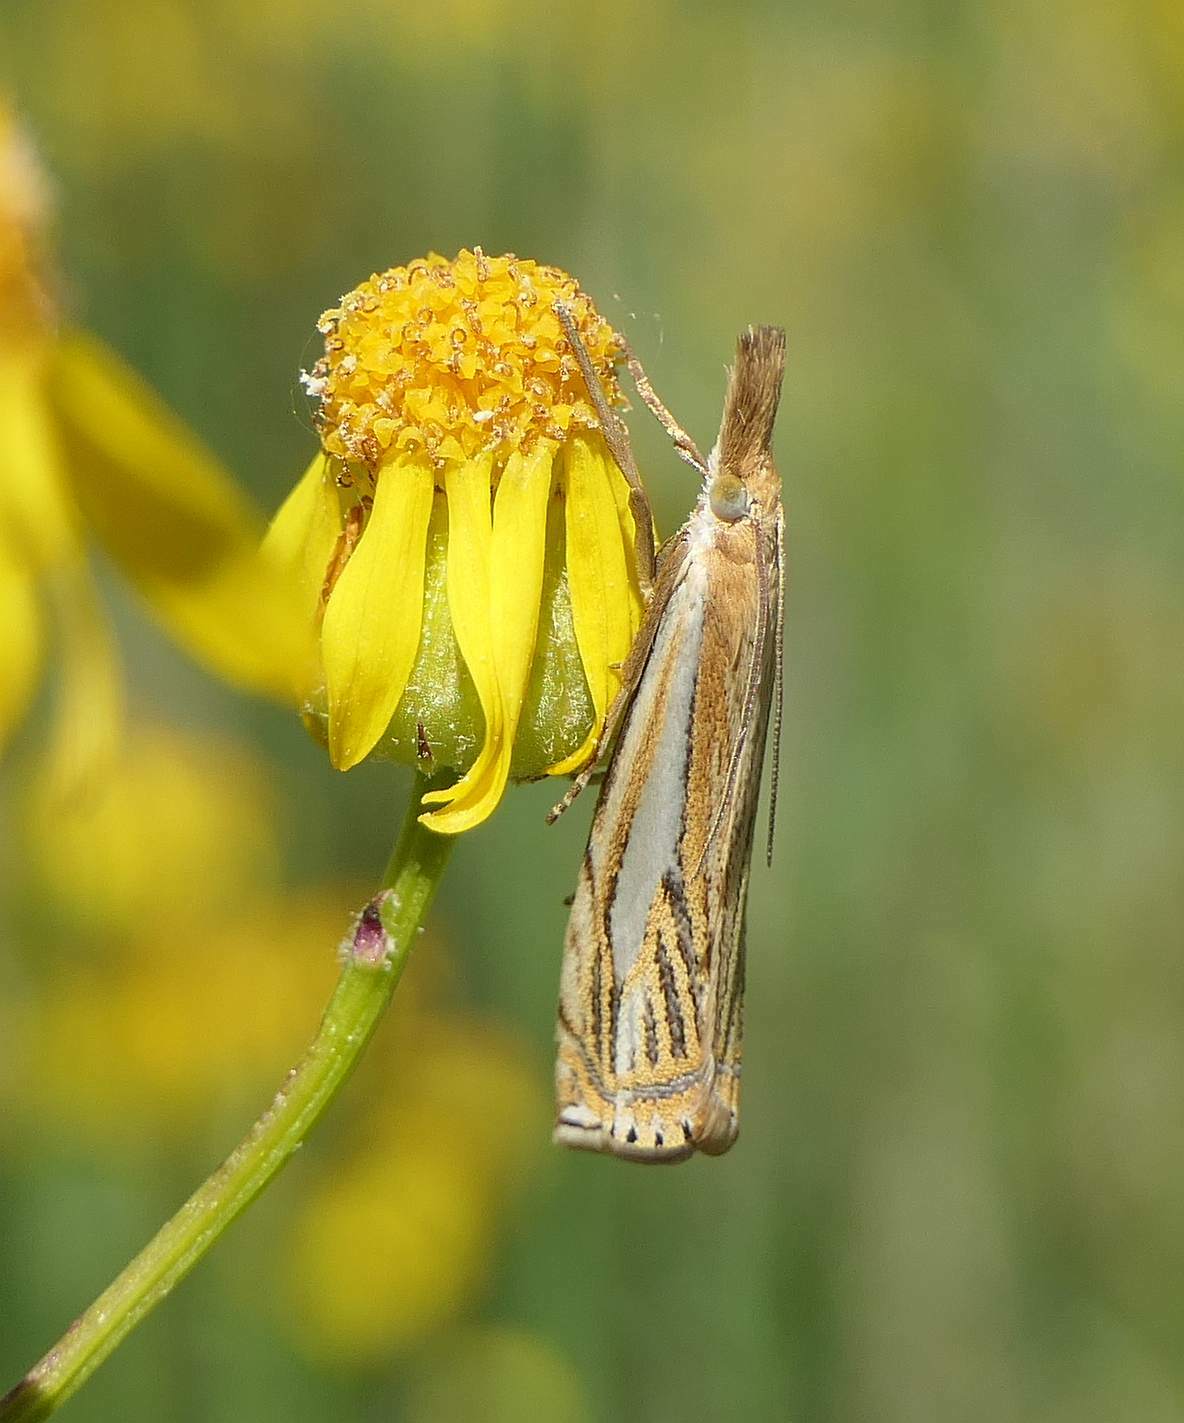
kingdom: Animalia
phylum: Arthropoda
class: Insecta
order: Lepidoptera
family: Crambidae
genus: Crambus
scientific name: Crambus saltuellus
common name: Pasture grass-veneer
